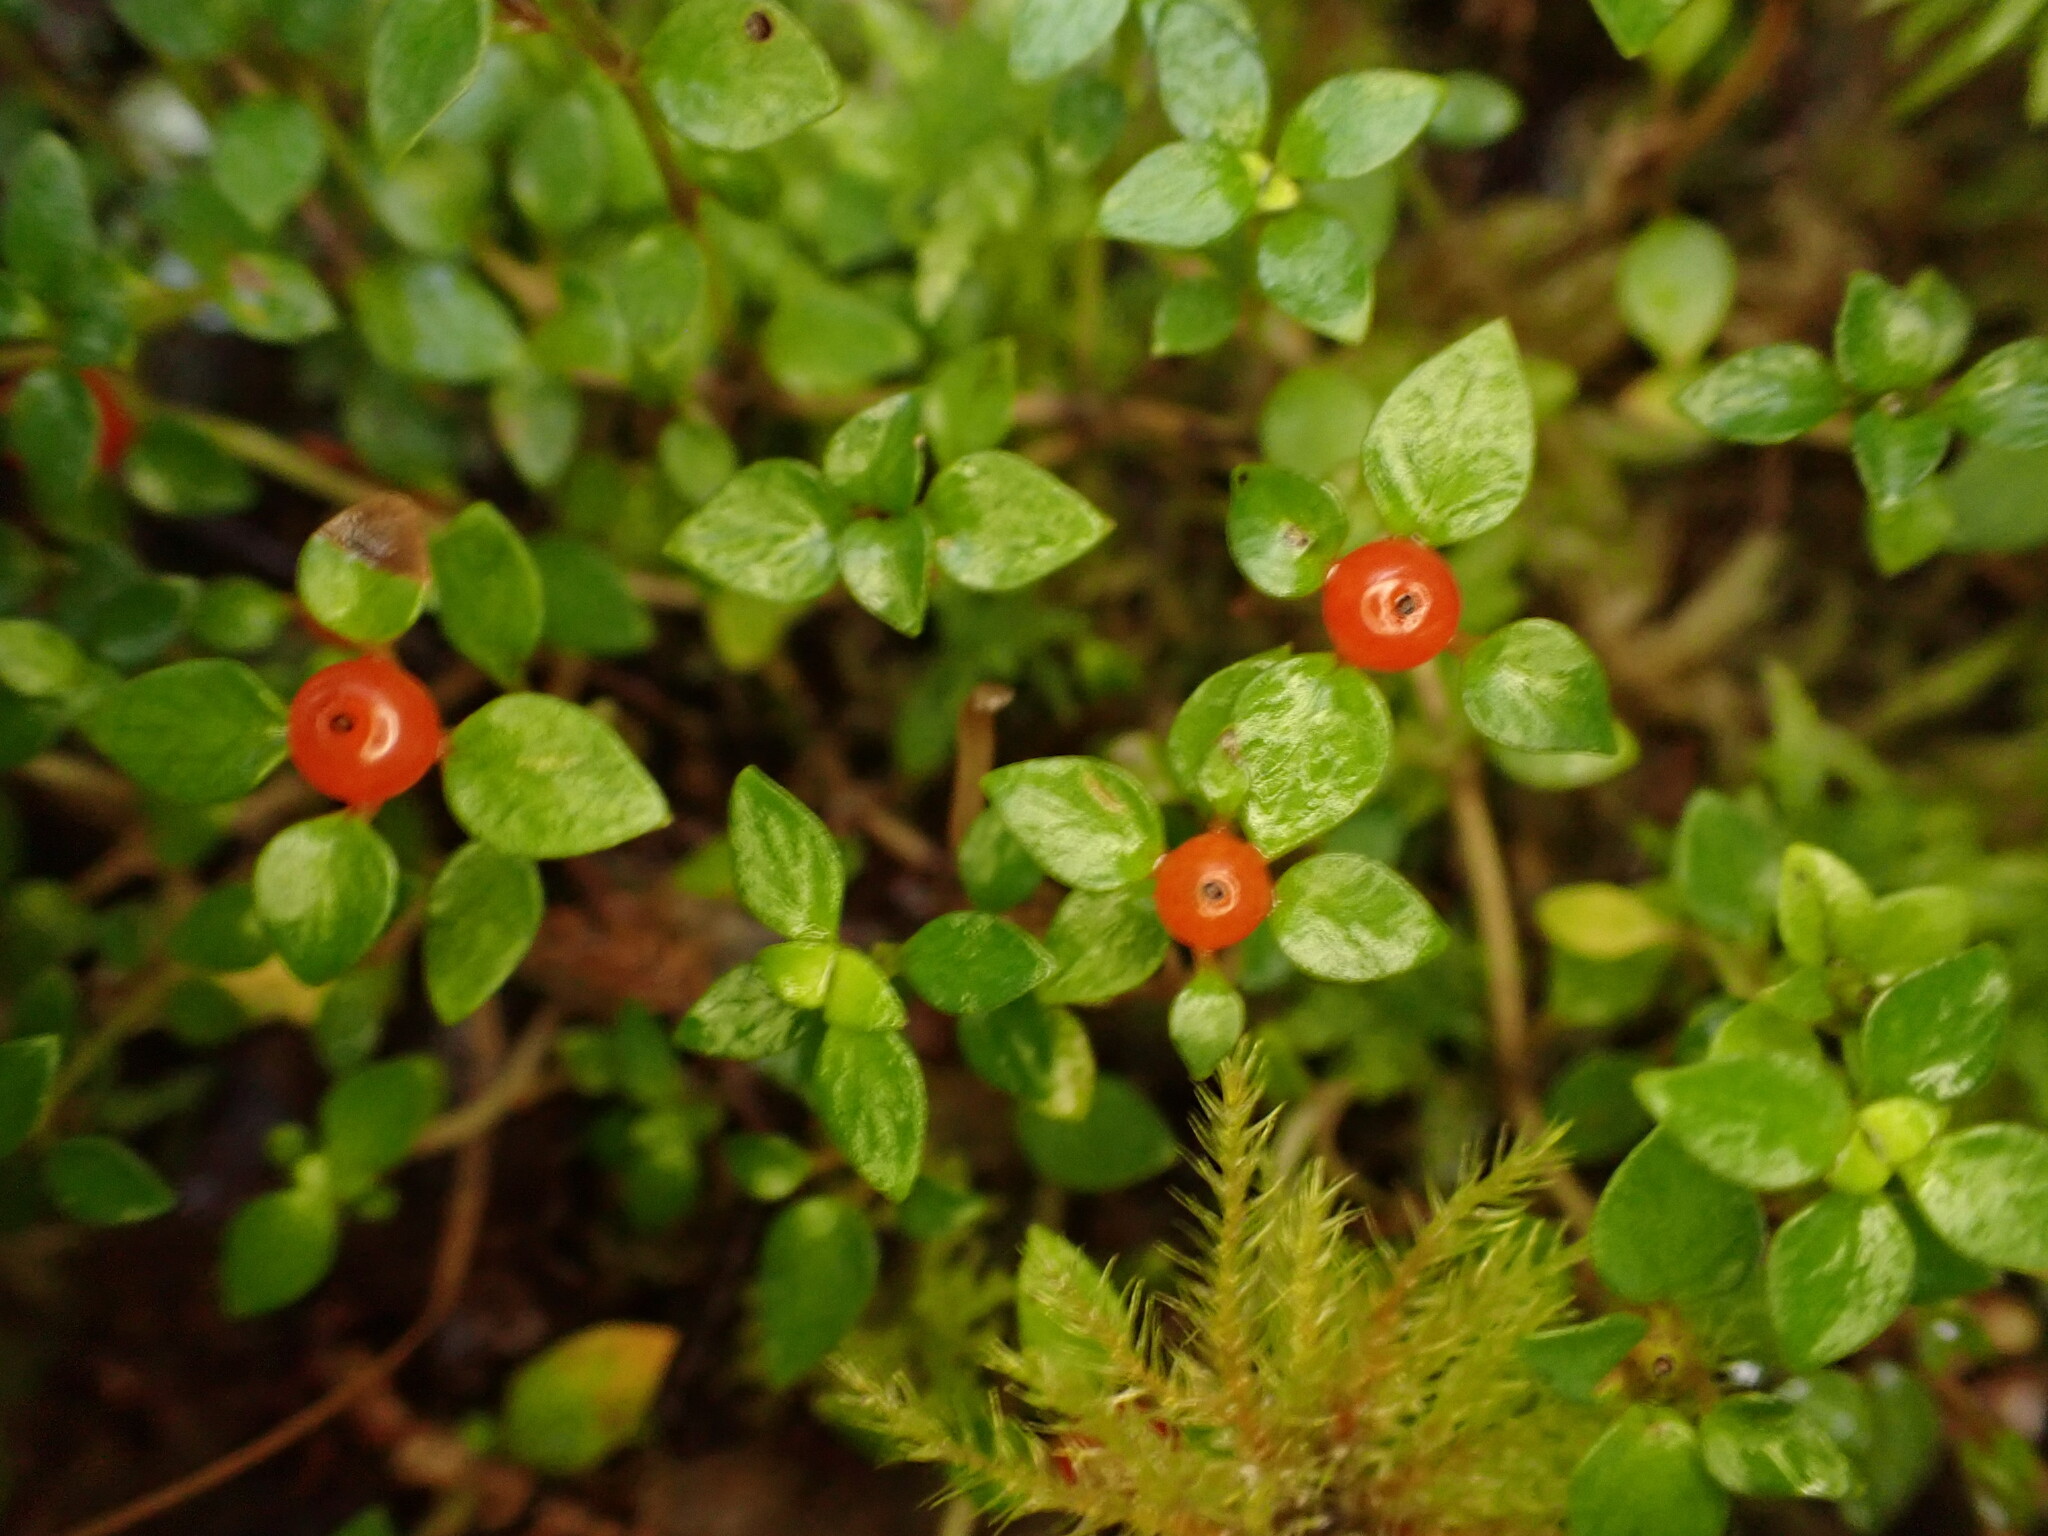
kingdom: Plantae
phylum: Tracheophyta
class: Magnoliopsida
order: Gentianales
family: Rubiaceae
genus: Nertera
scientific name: Nertera granadensis
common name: Beadplant
